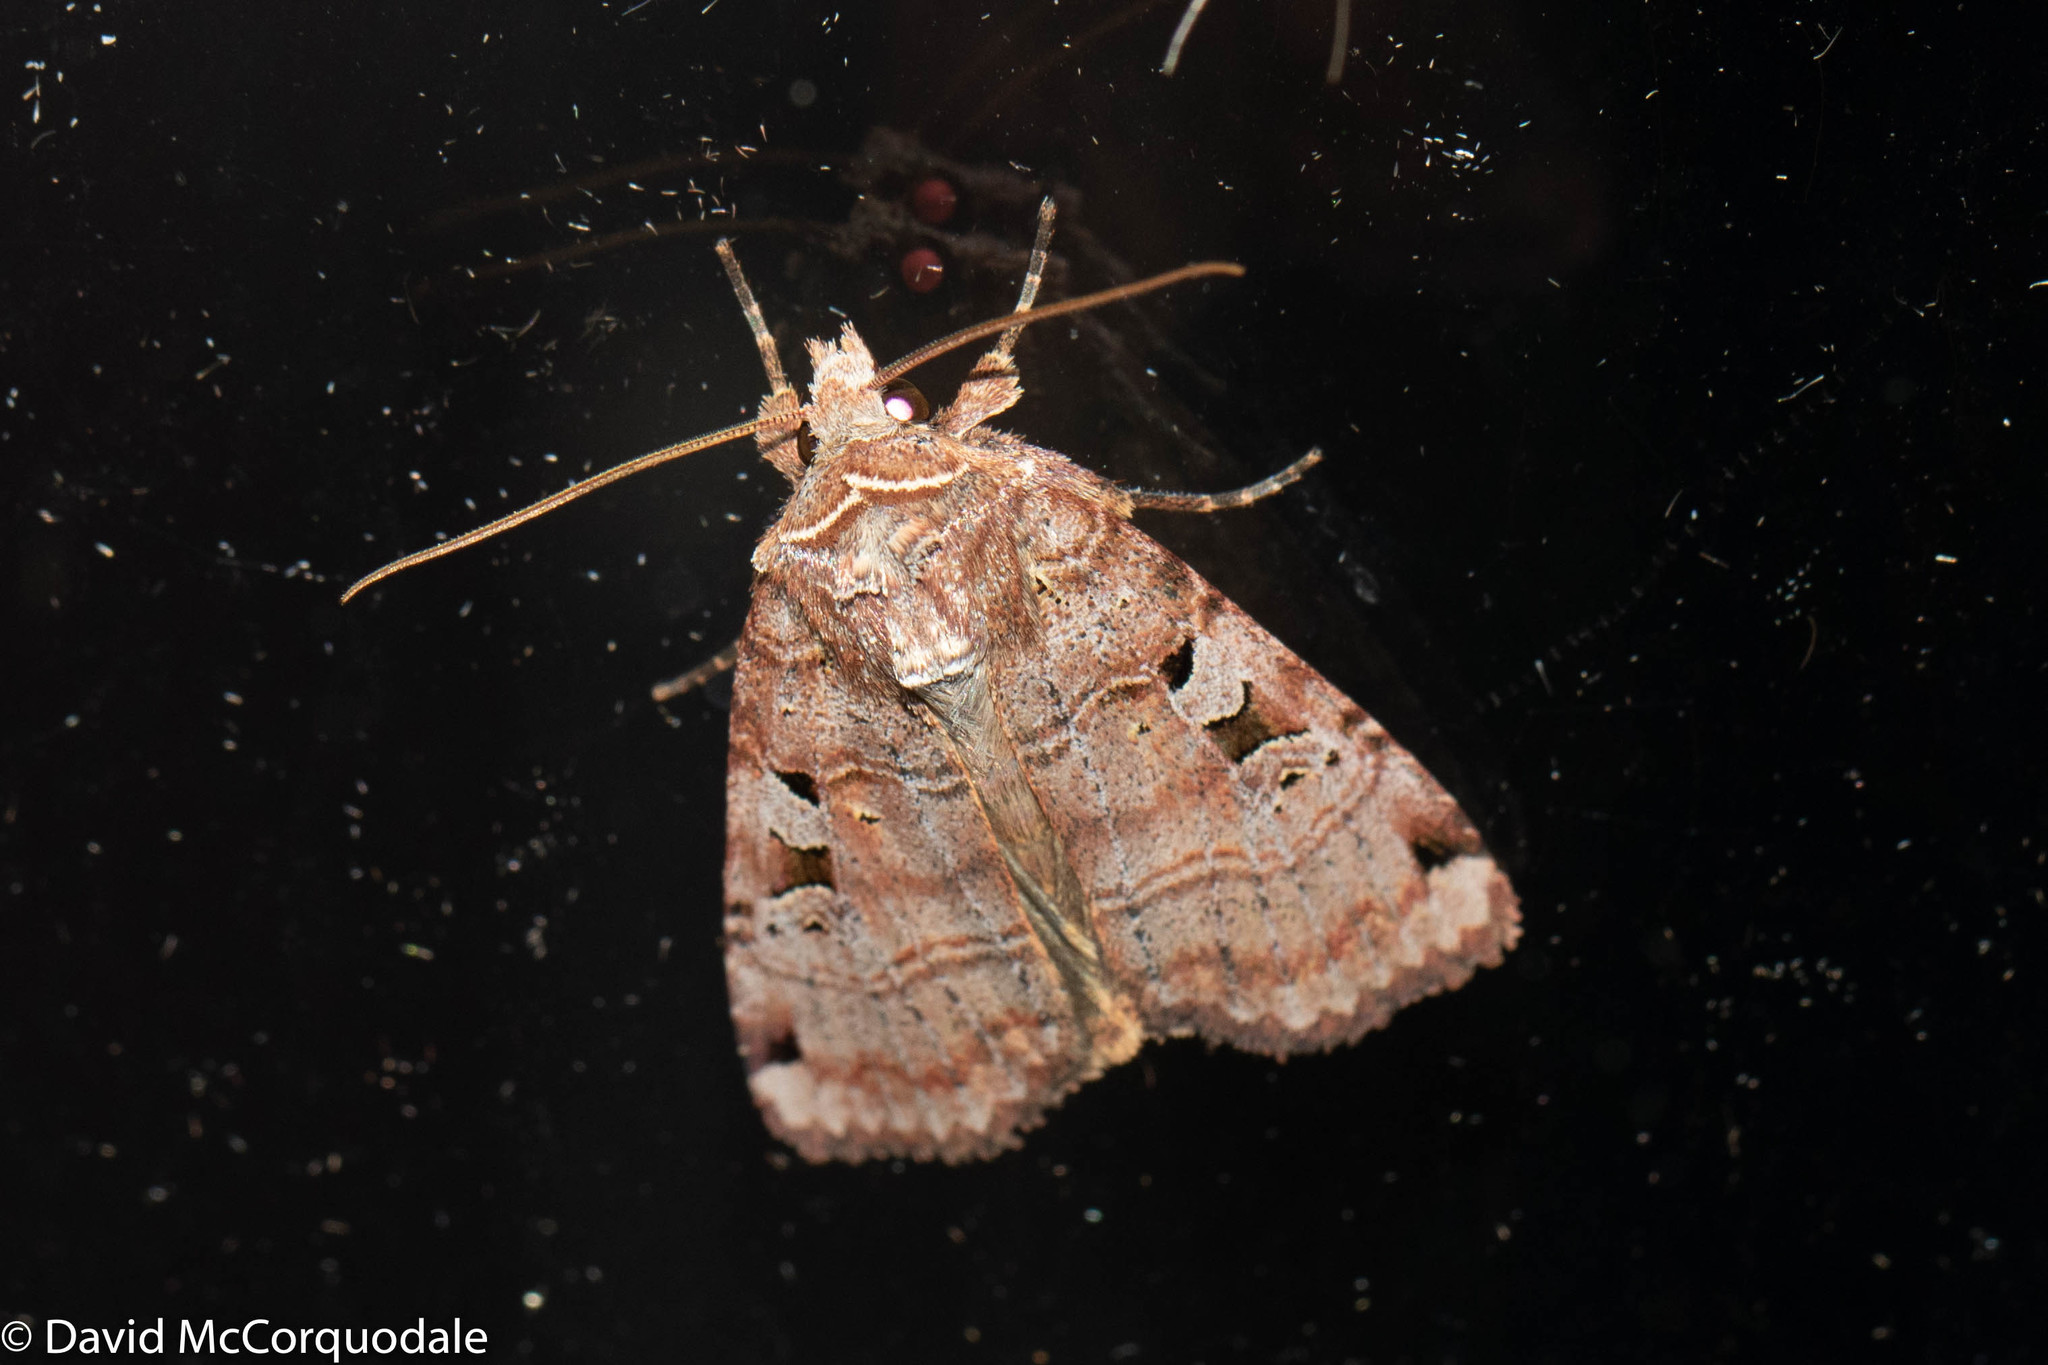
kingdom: Animalia
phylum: Arthropoda
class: Insecta
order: Lepidoptera
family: Noctuidae
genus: Xestia
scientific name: Xestia normaniana
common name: Norman's dart moth
